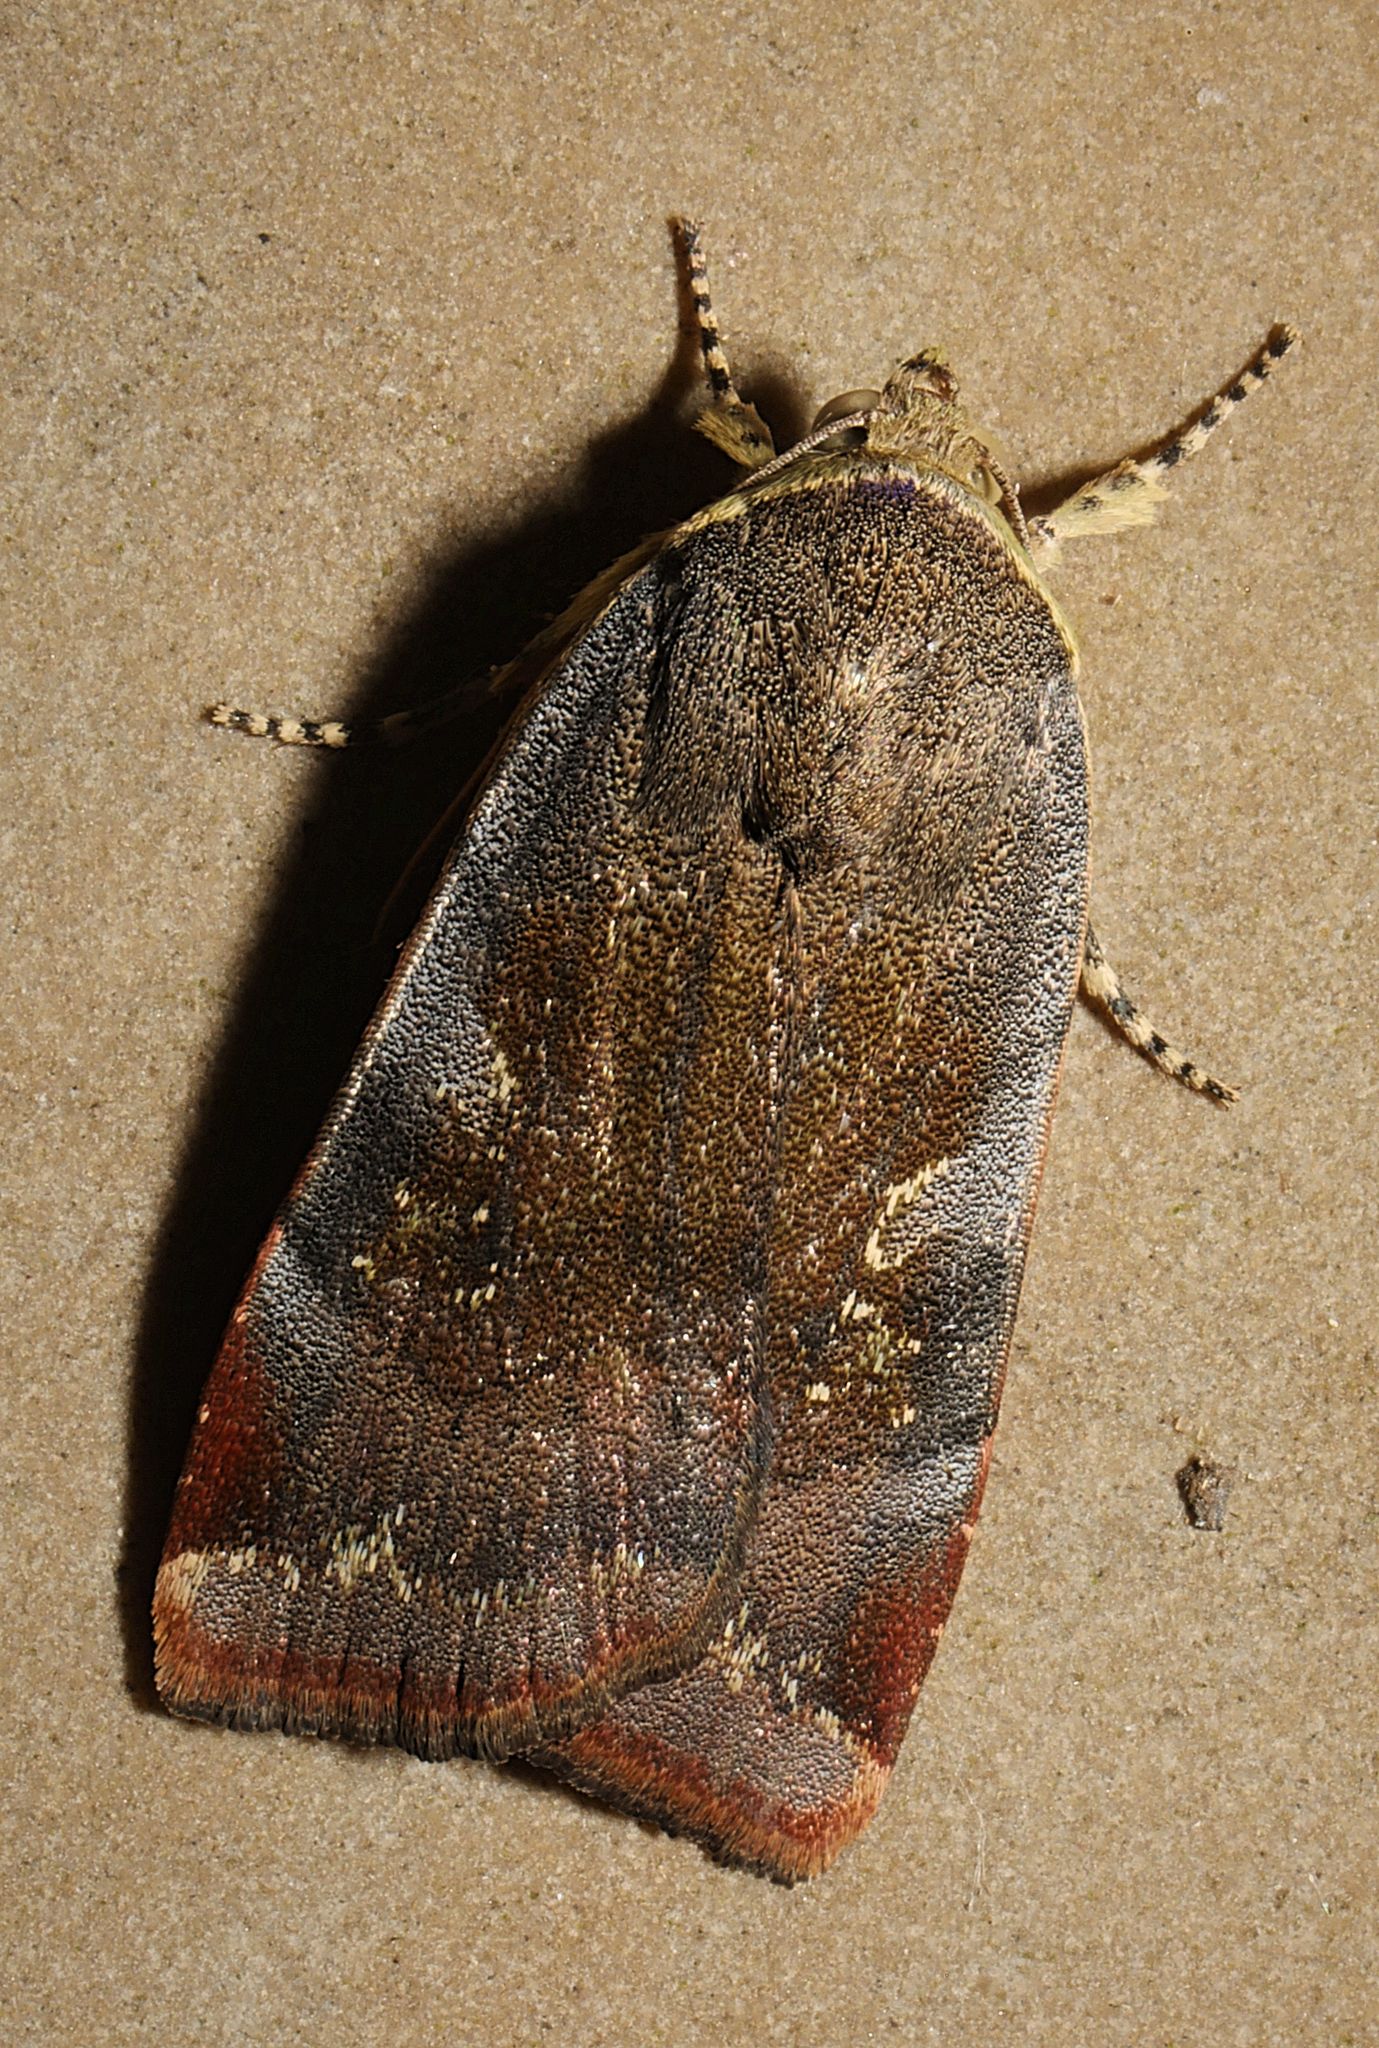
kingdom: Animalia
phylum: Arthropoda
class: Insecta
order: Lepidoptera
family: Noctuidae
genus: Noctua
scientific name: Noctua janthe
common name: Lesser broad-bordered yellow underwing
